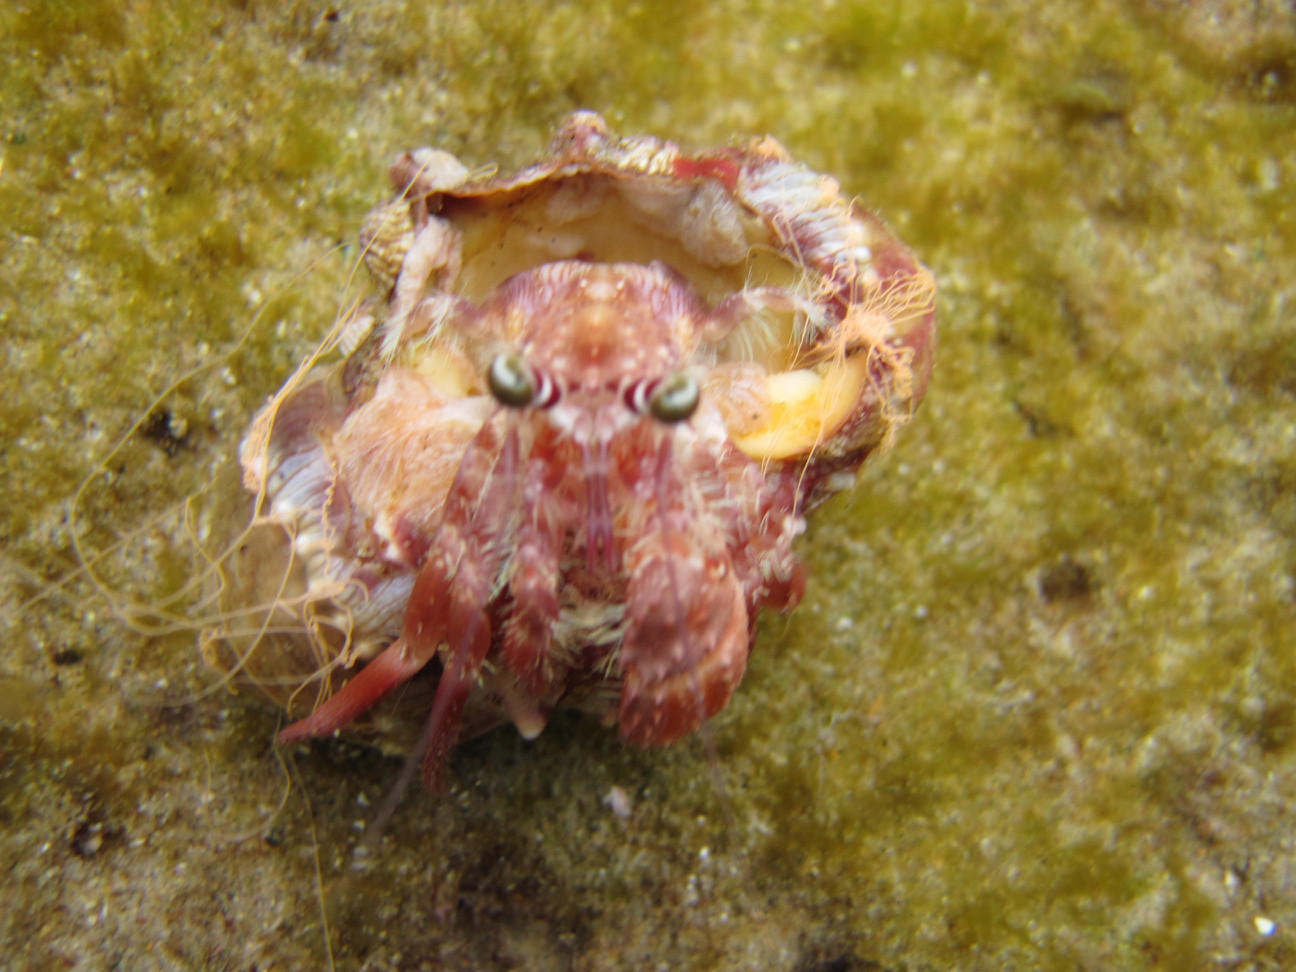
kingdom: Animalia
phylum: Arthropoda
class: Malacostraca
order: Decapoda
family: Diogenidae
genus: Dardanus
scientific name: Dardanus pedunculatus
